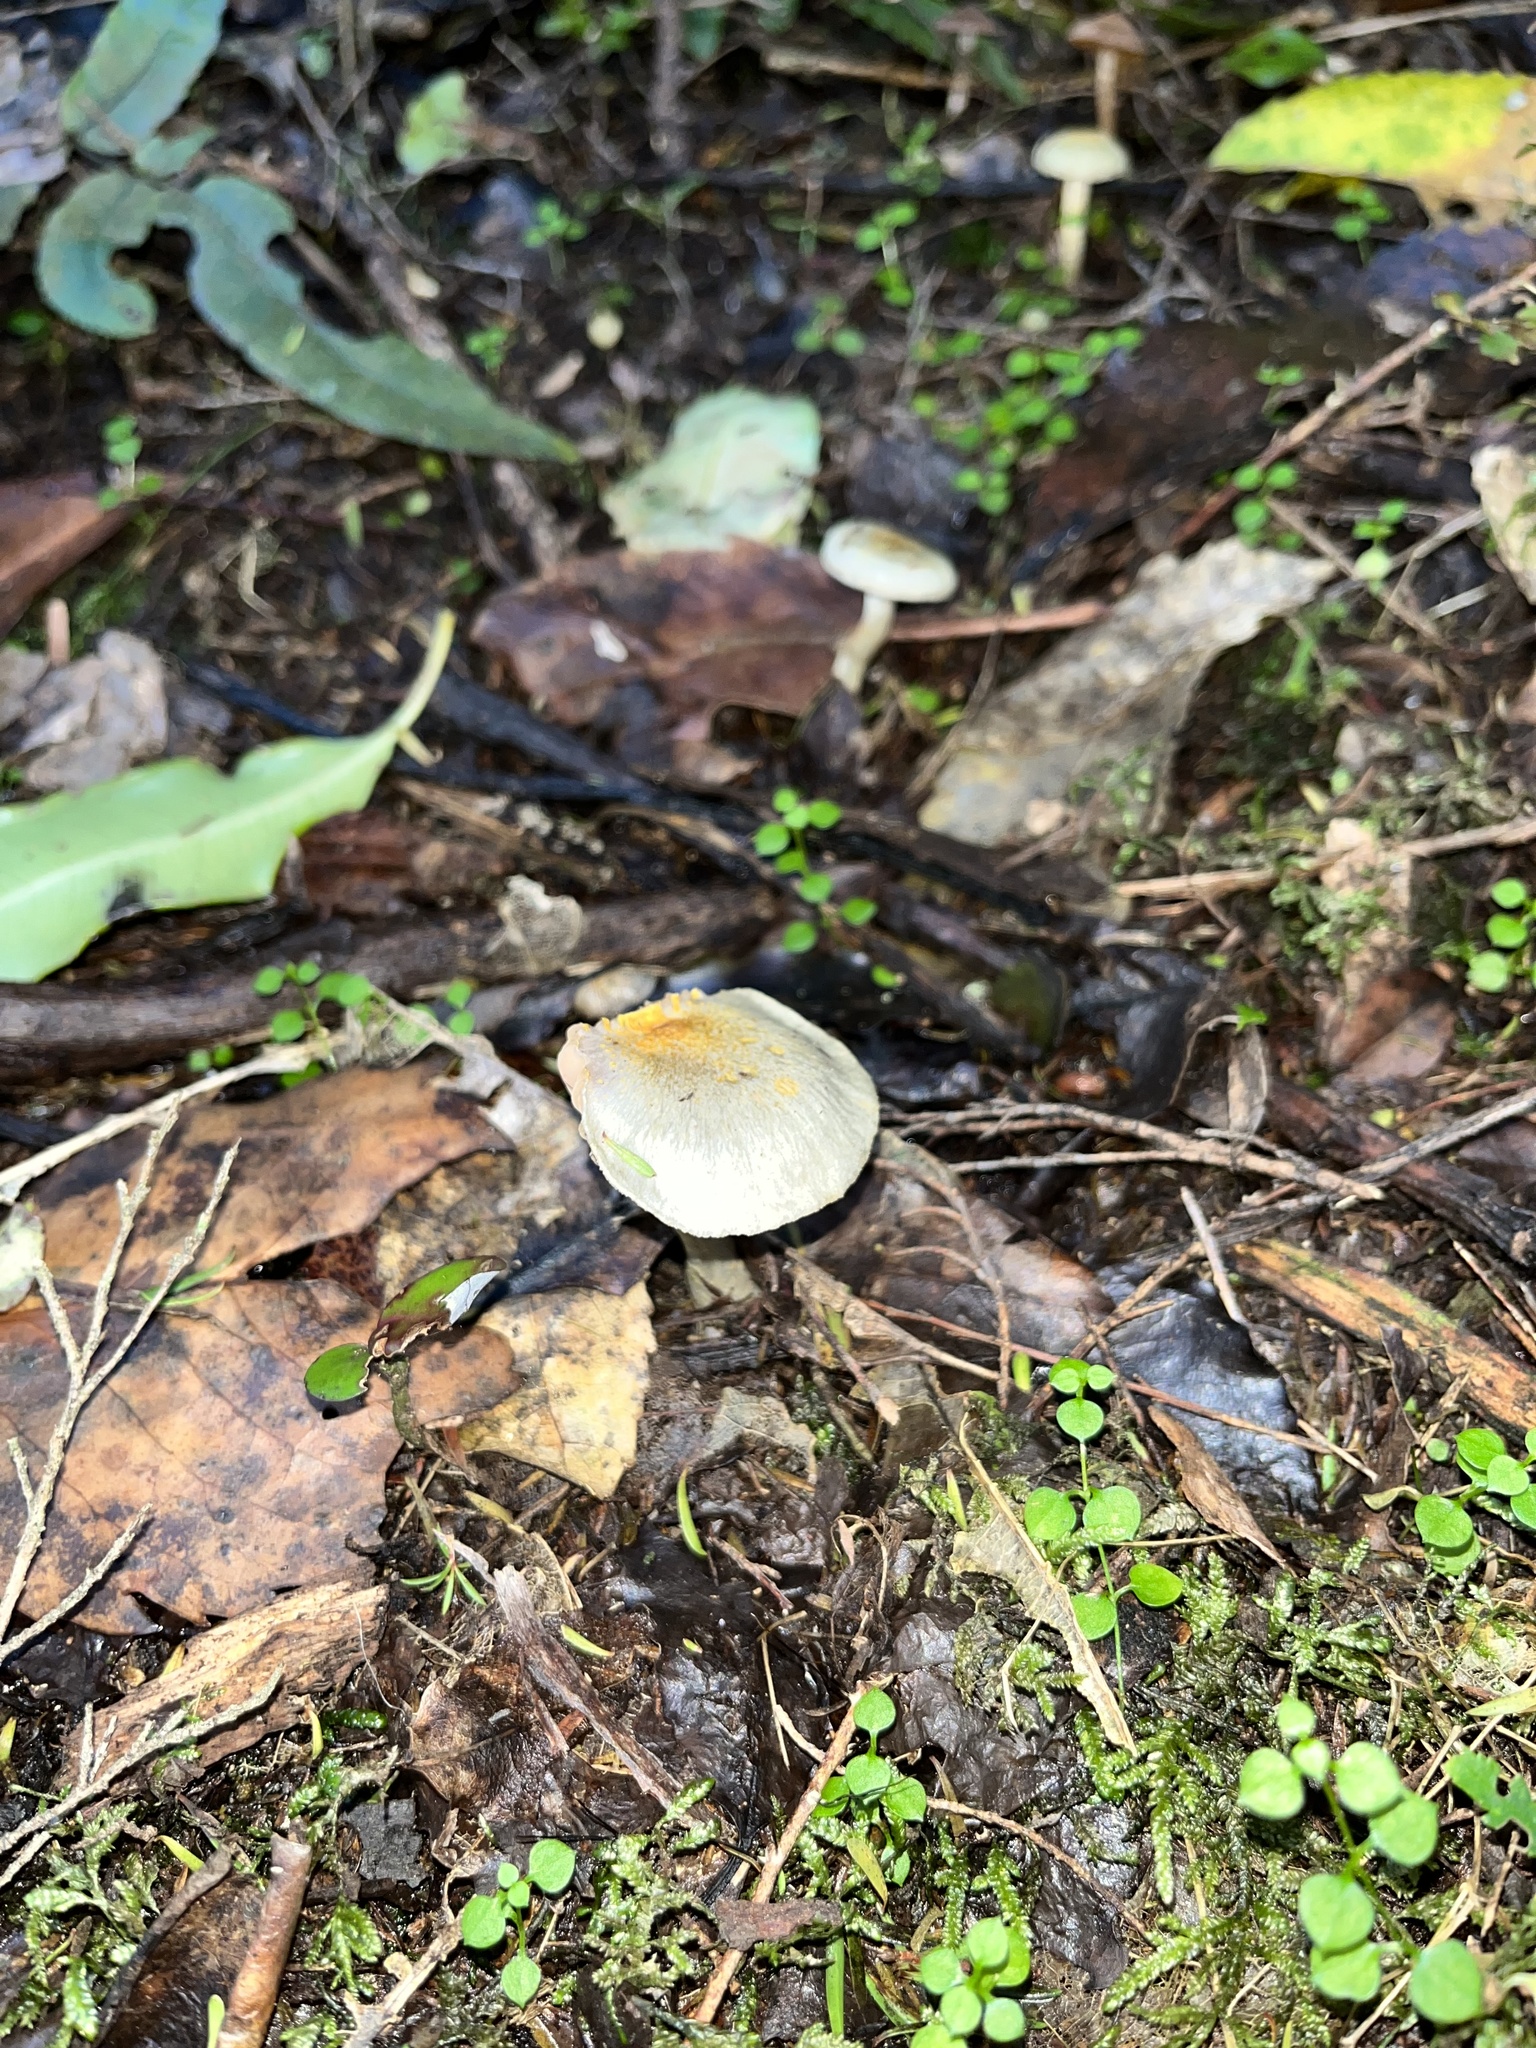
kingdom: Fungi
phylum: Basidiomycota
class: Agaricomycetes
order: Agaricales
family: Cortinariaceae
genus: Cortinarius
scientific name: Cortinarius rotundisporus
